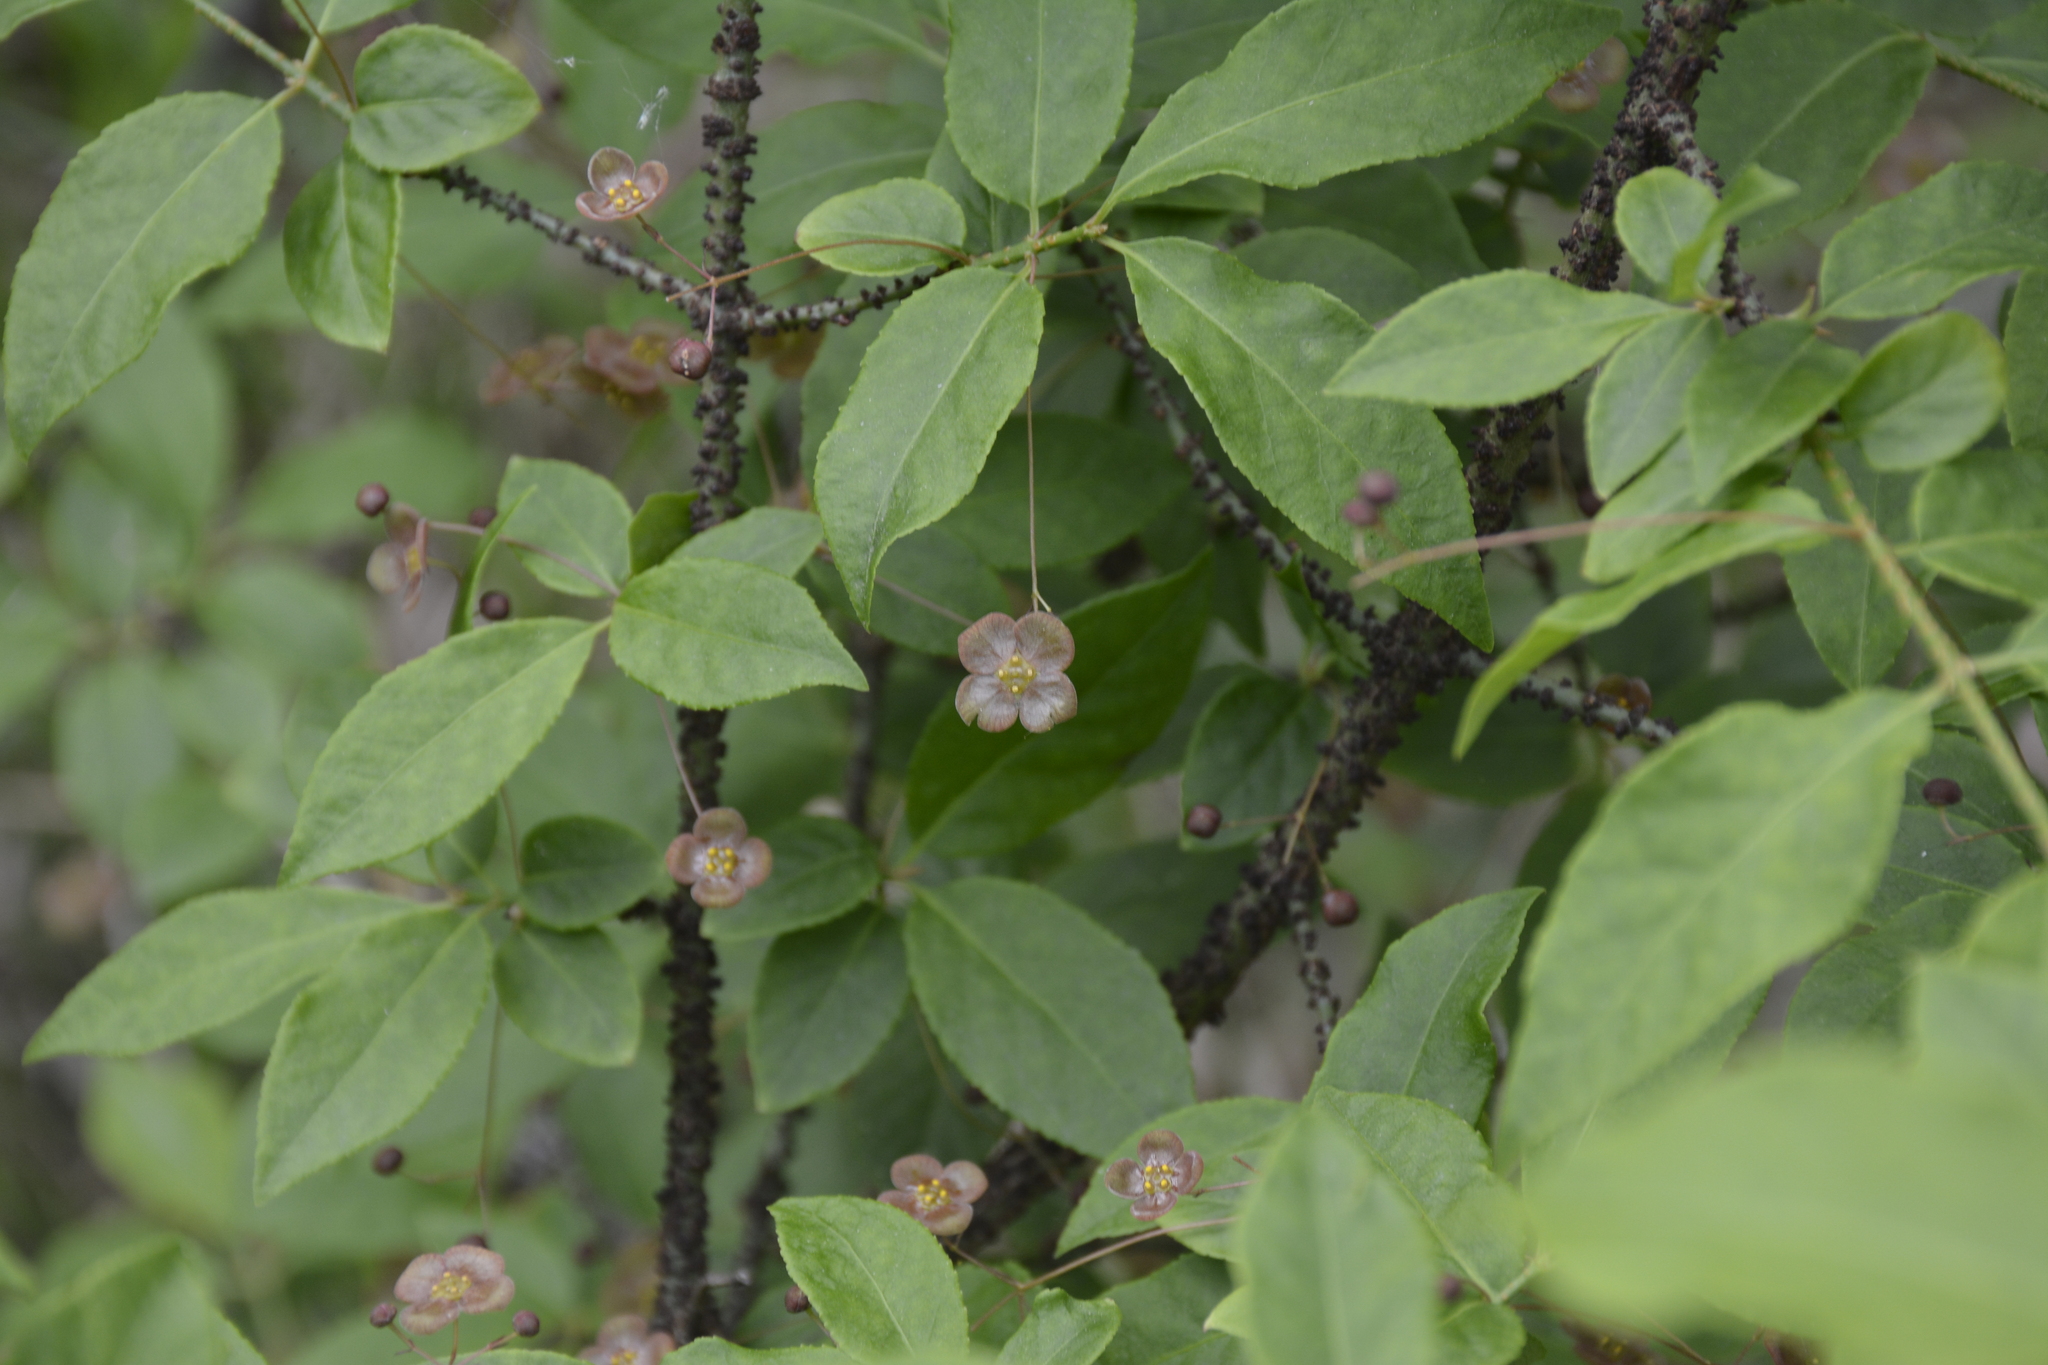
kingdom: Plantae
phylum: Tracheophyta
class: Magnoliopsida
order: Celastrales
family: Celastraceae
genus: Euonymus
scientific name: Euonymus verrucosus
